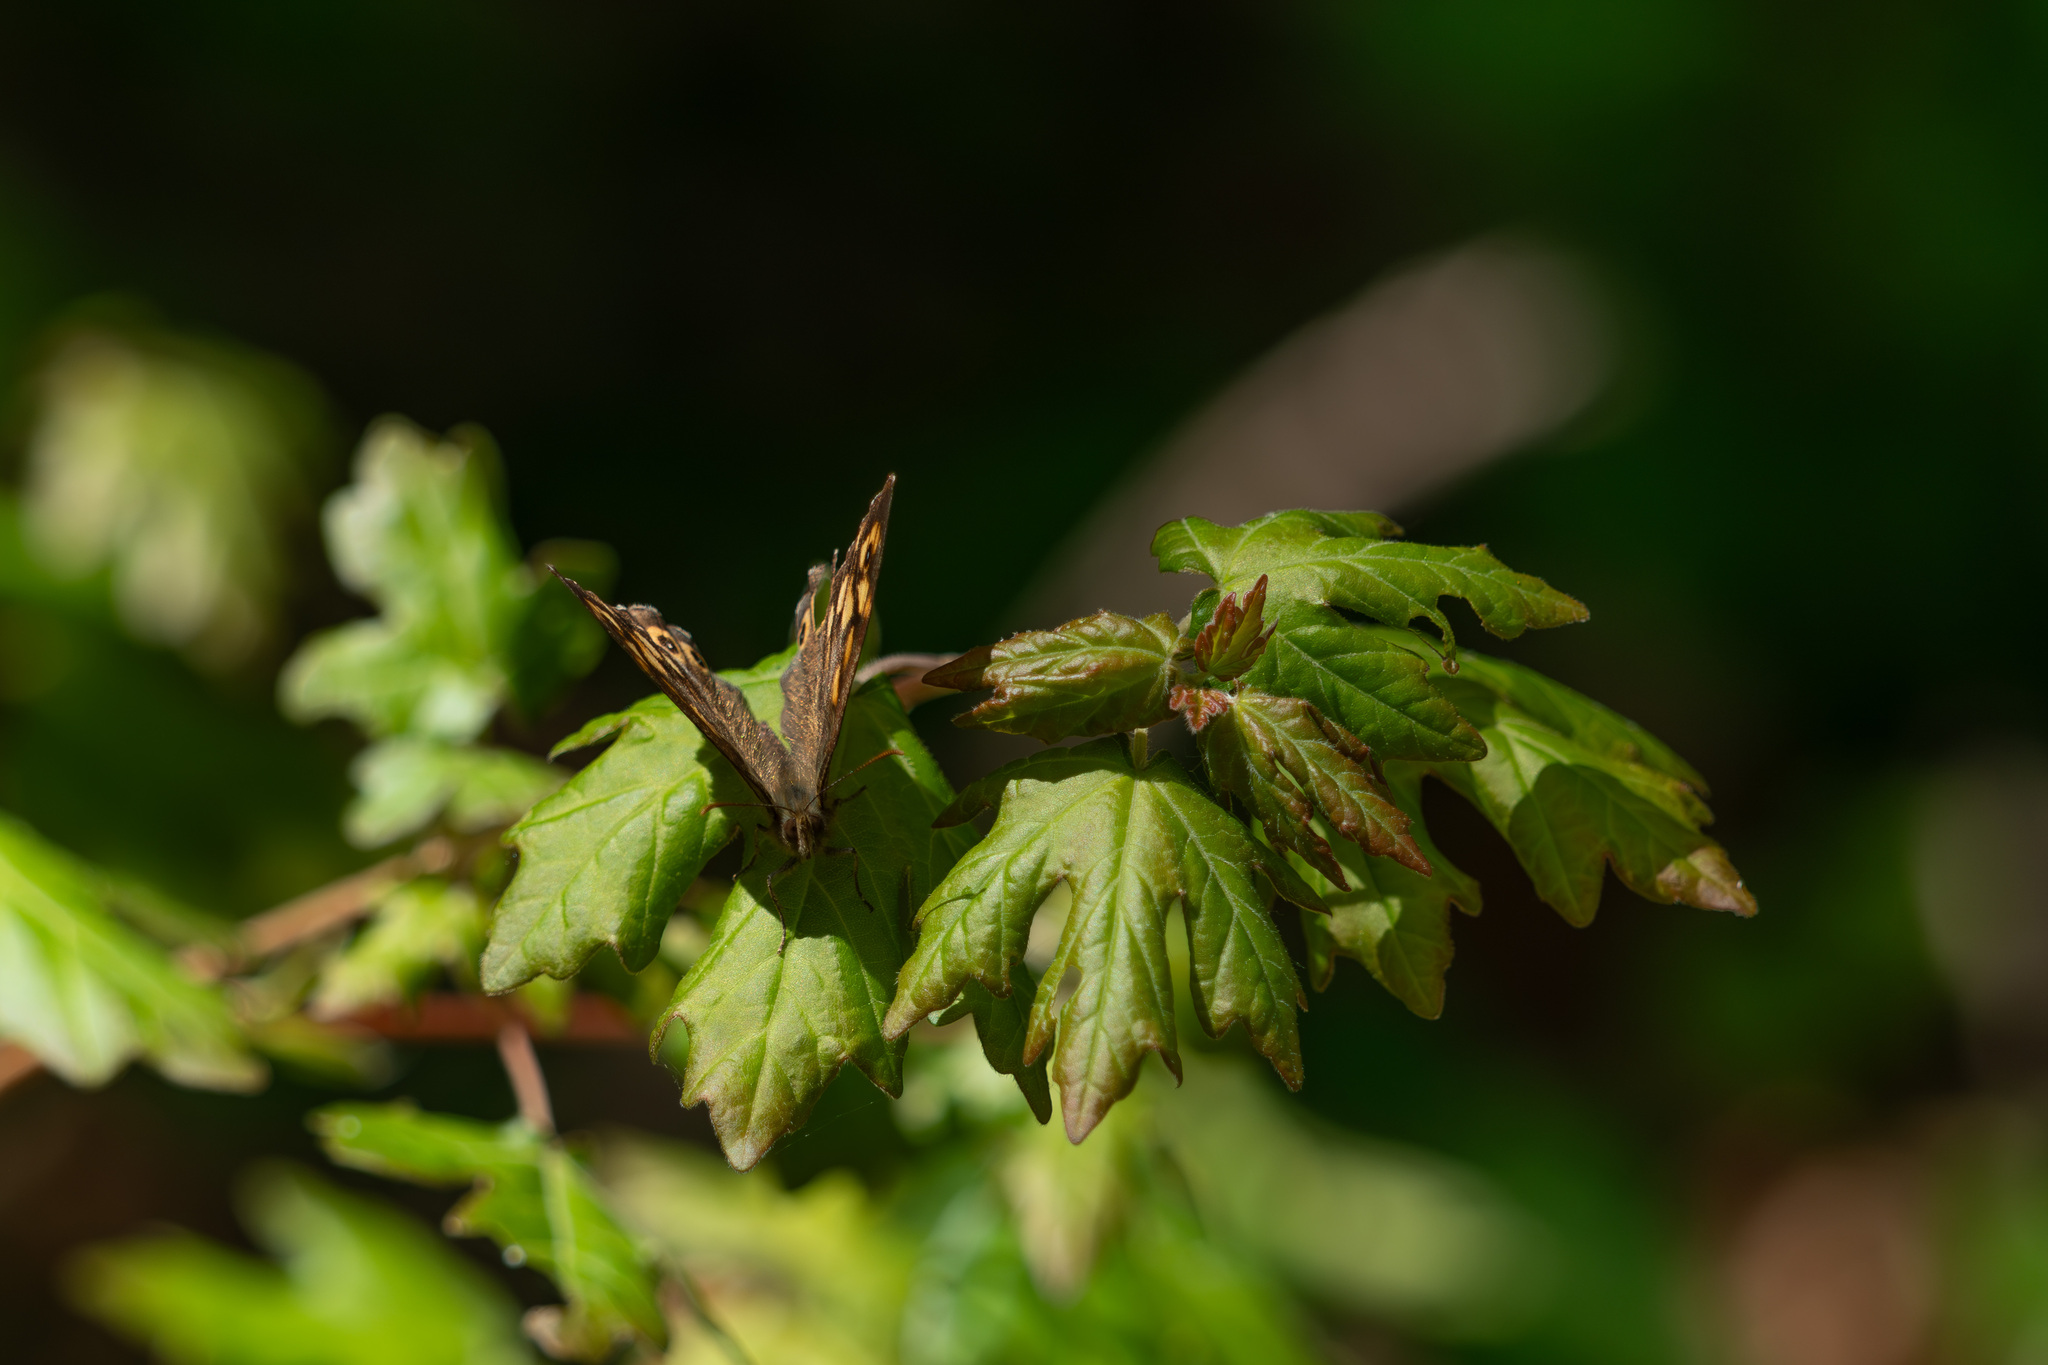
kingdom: Animalia
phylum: Arthropoda
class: Insecta
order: Lepidoptera
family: Nymphalidae
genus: Pararge
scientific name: Pararge aegeria
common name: Speckled wood
